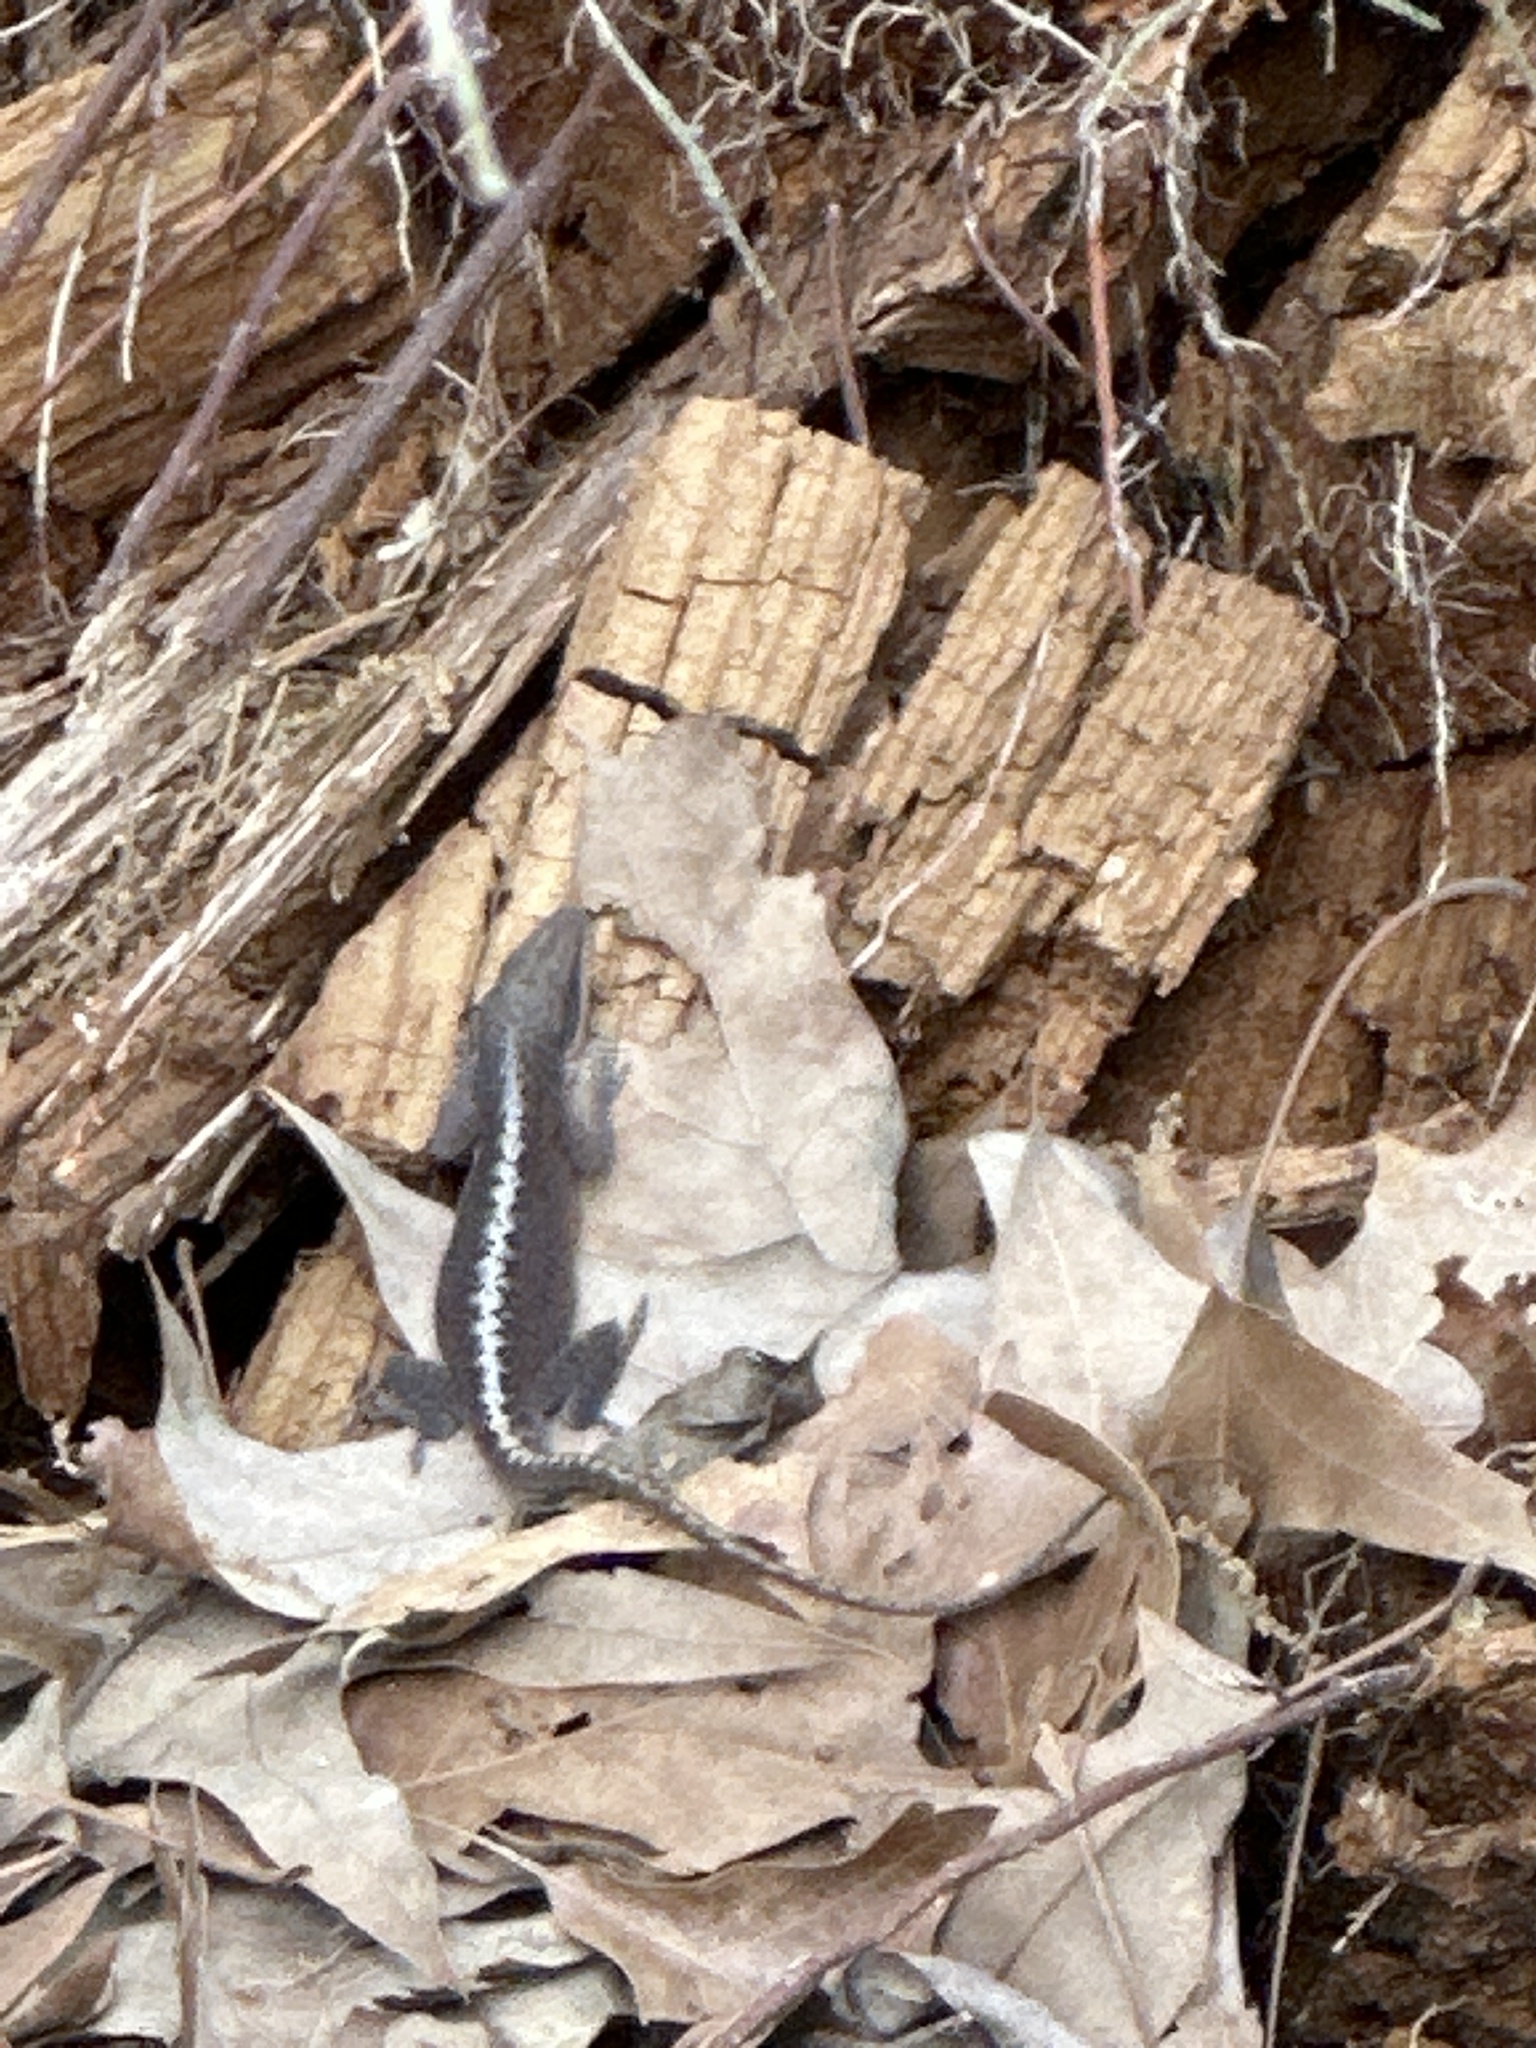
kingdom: Animalia
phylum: Chordata
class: Squamata
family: Dactyloidae
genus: Anolis
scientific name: Anolis carolinensis
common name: Green anole
